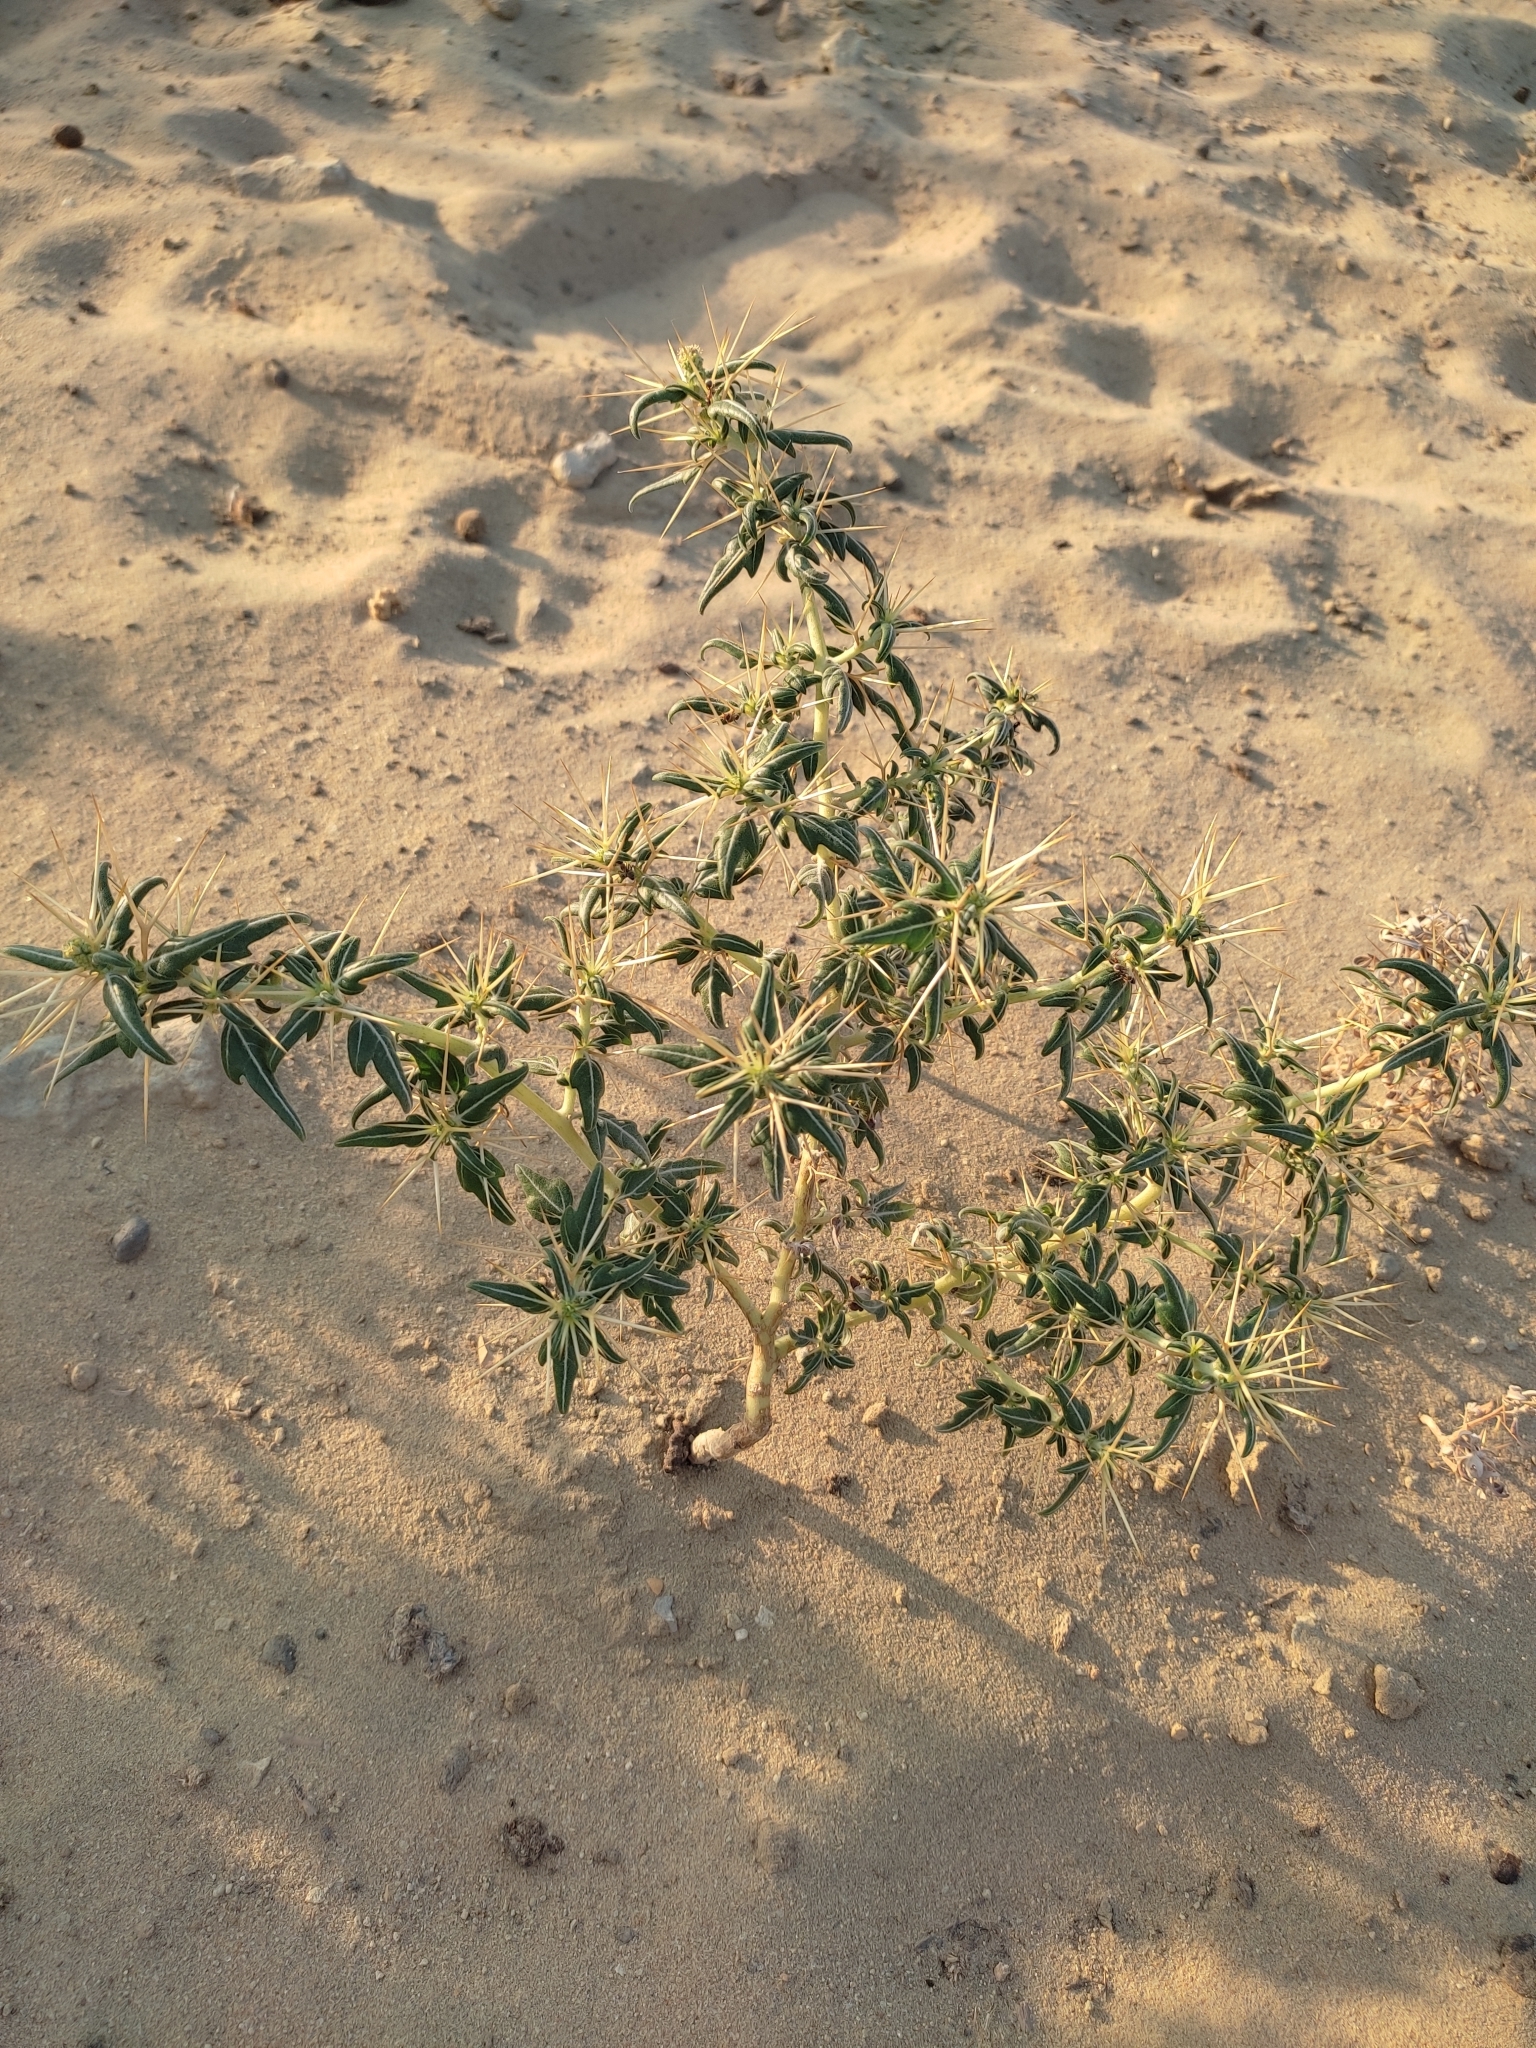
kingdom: Plantae
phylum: Tracheophyta
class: Magnoliopsida
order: Asterales
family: Asteraceae
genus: Xanthium
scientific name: Xanthium spinosum
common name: Spiny cocklebur
